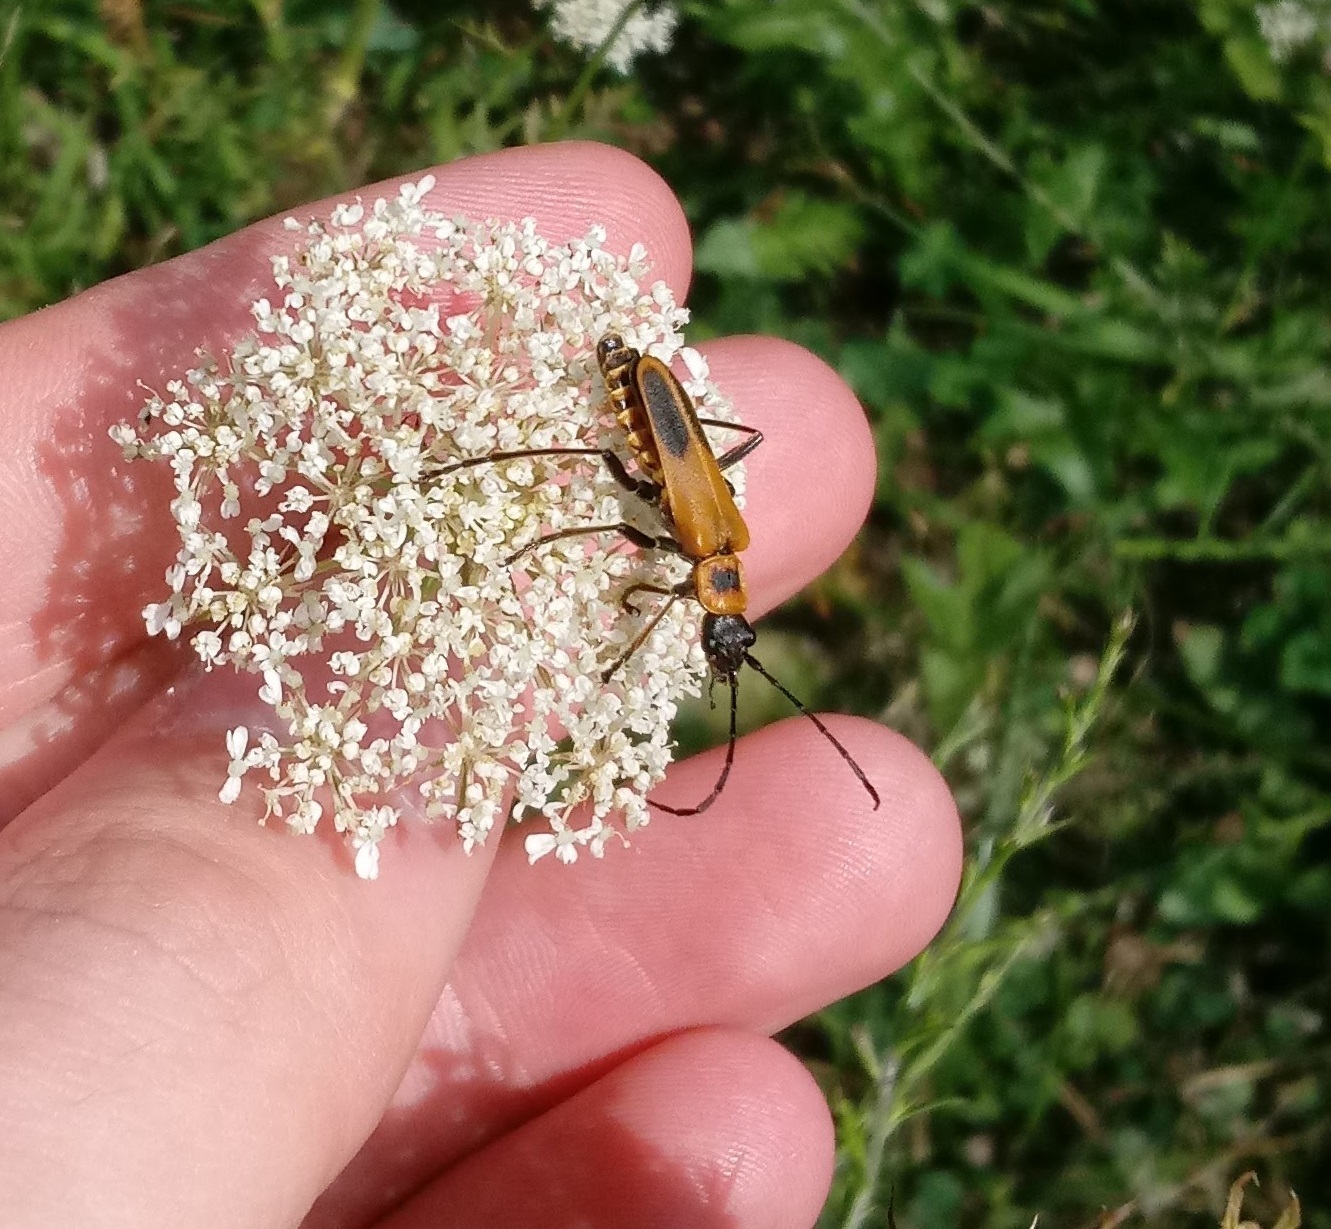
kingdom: Animalia
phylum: Arthropoda
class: Insecta
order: Coleoptera
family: Cantharidae
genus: Chauliognathus
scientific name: Chauliognathus pensylvanicus
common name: Goldenrod soldier beetle
